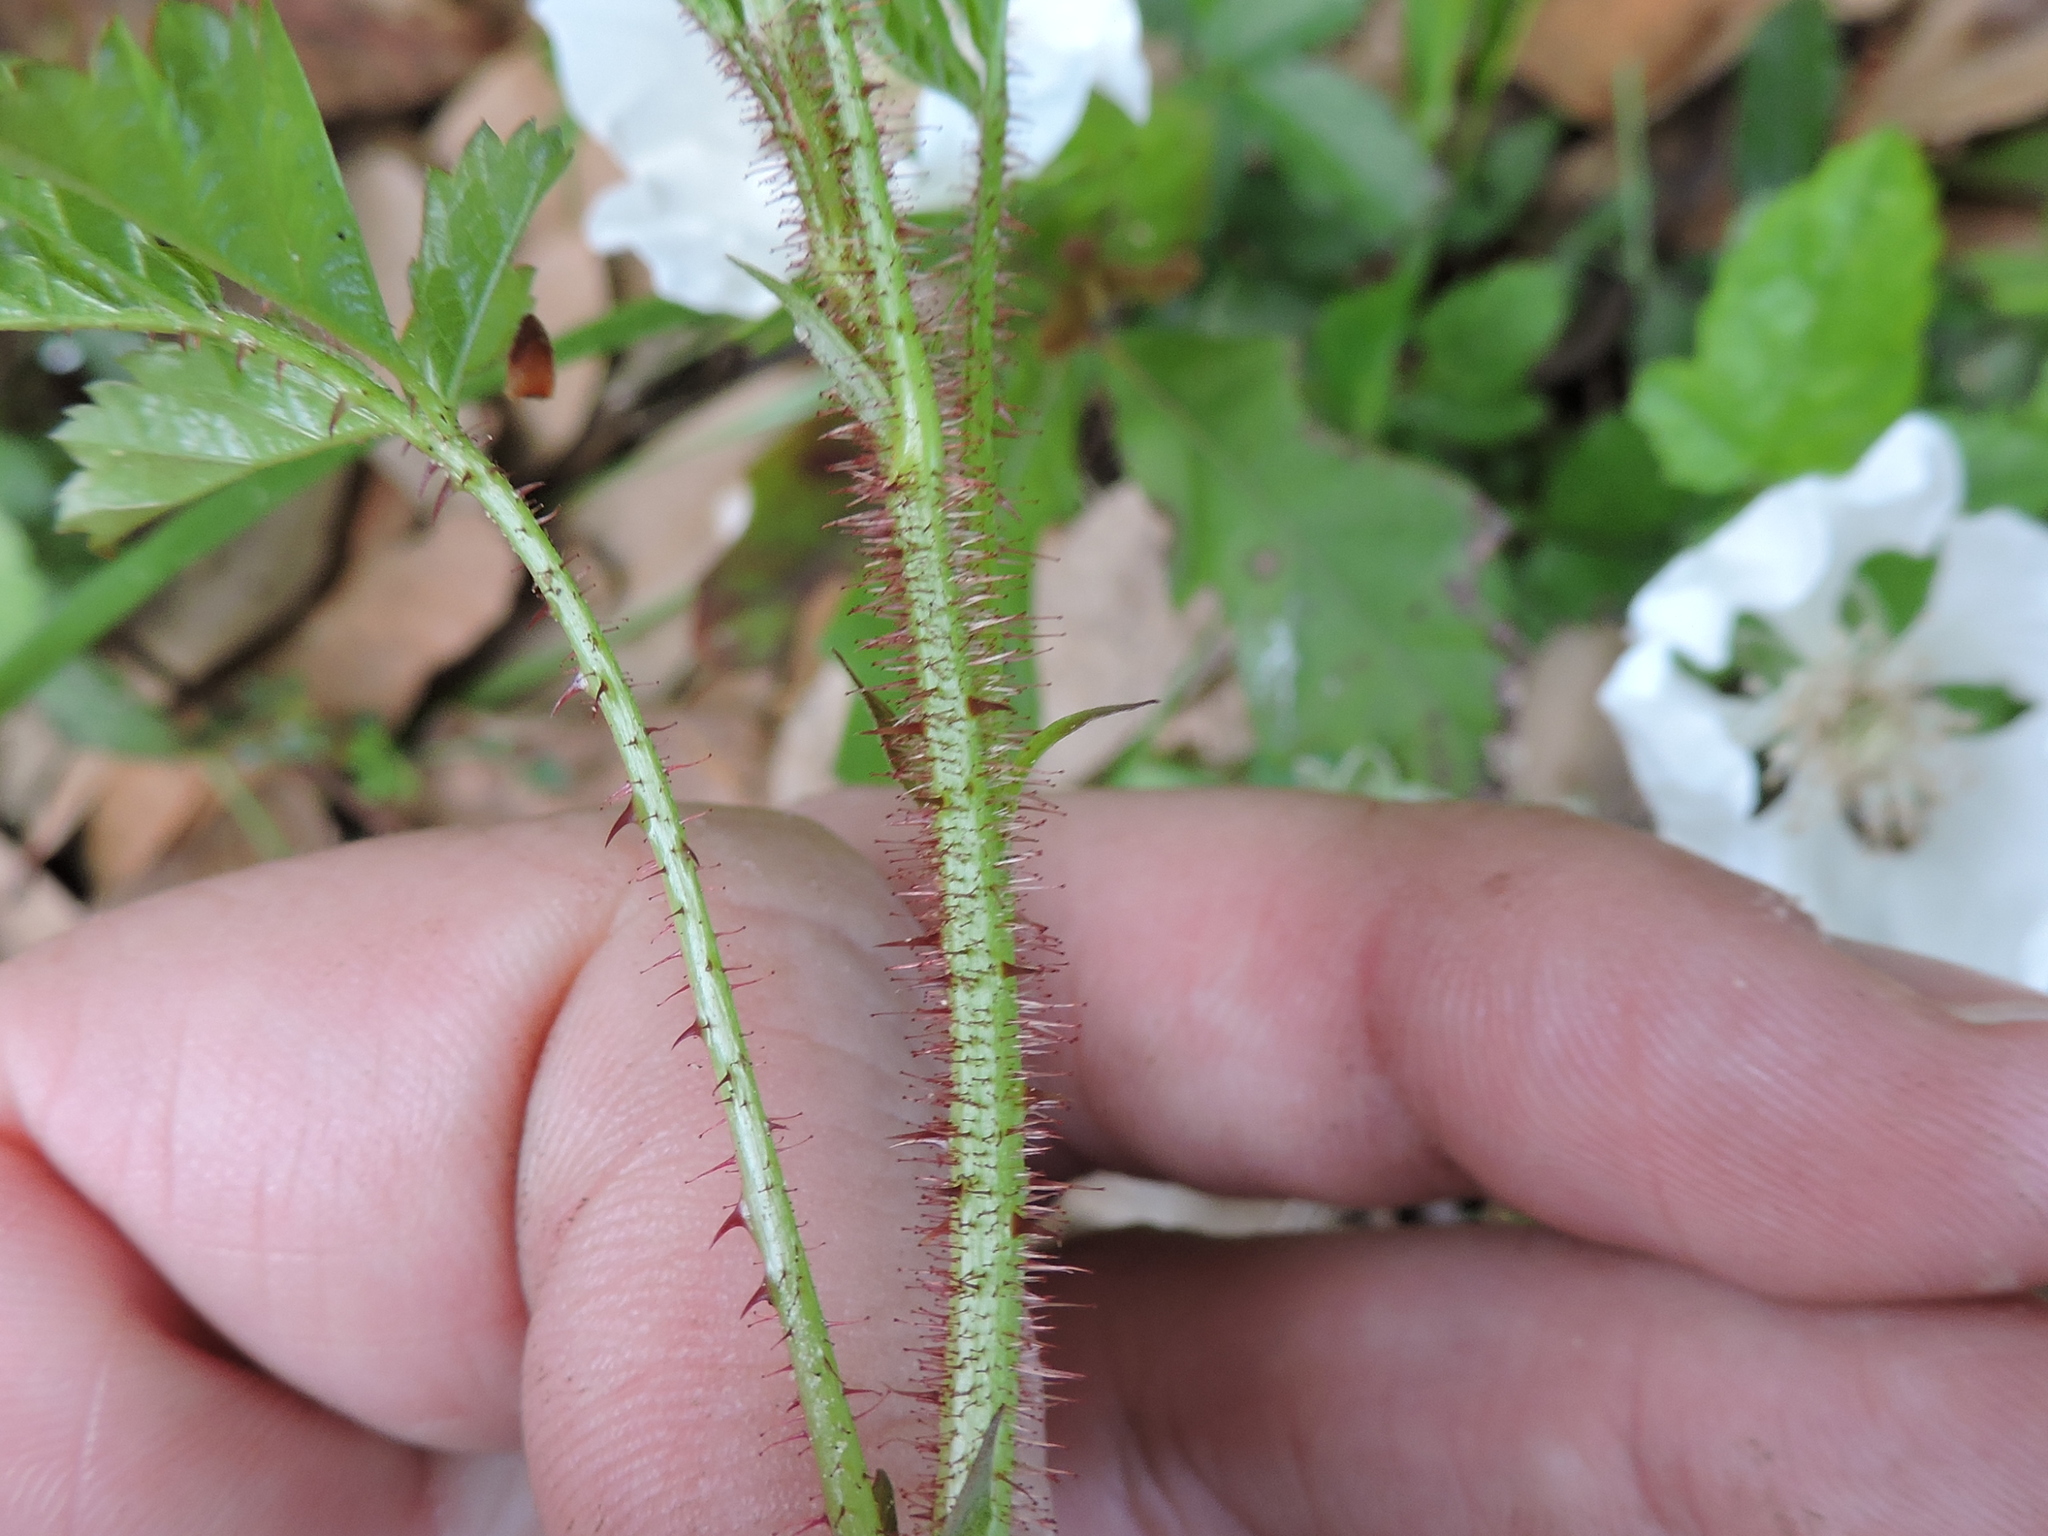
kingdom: Plantae
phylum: Tracheophyta
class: Magnoliopsida
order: Rosales
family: Rosaceae
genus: Rubus
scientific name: Rubus trivialis
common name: Southern dewberry
